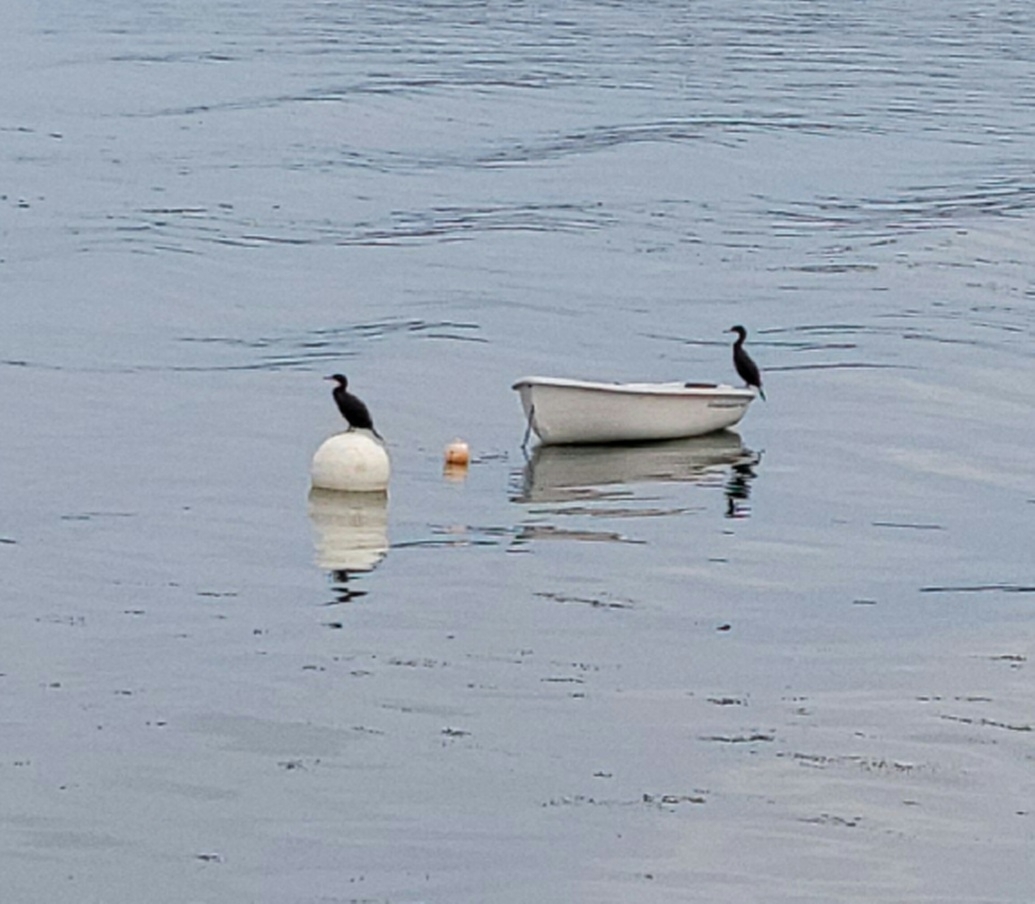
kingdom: Animalia
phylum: Chordata
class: Aves
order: Suliformes
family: Phalacrocoracidae
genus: Phalacrocorax
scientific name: Phalacrocorax auritus
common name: Double-crested cormorant
